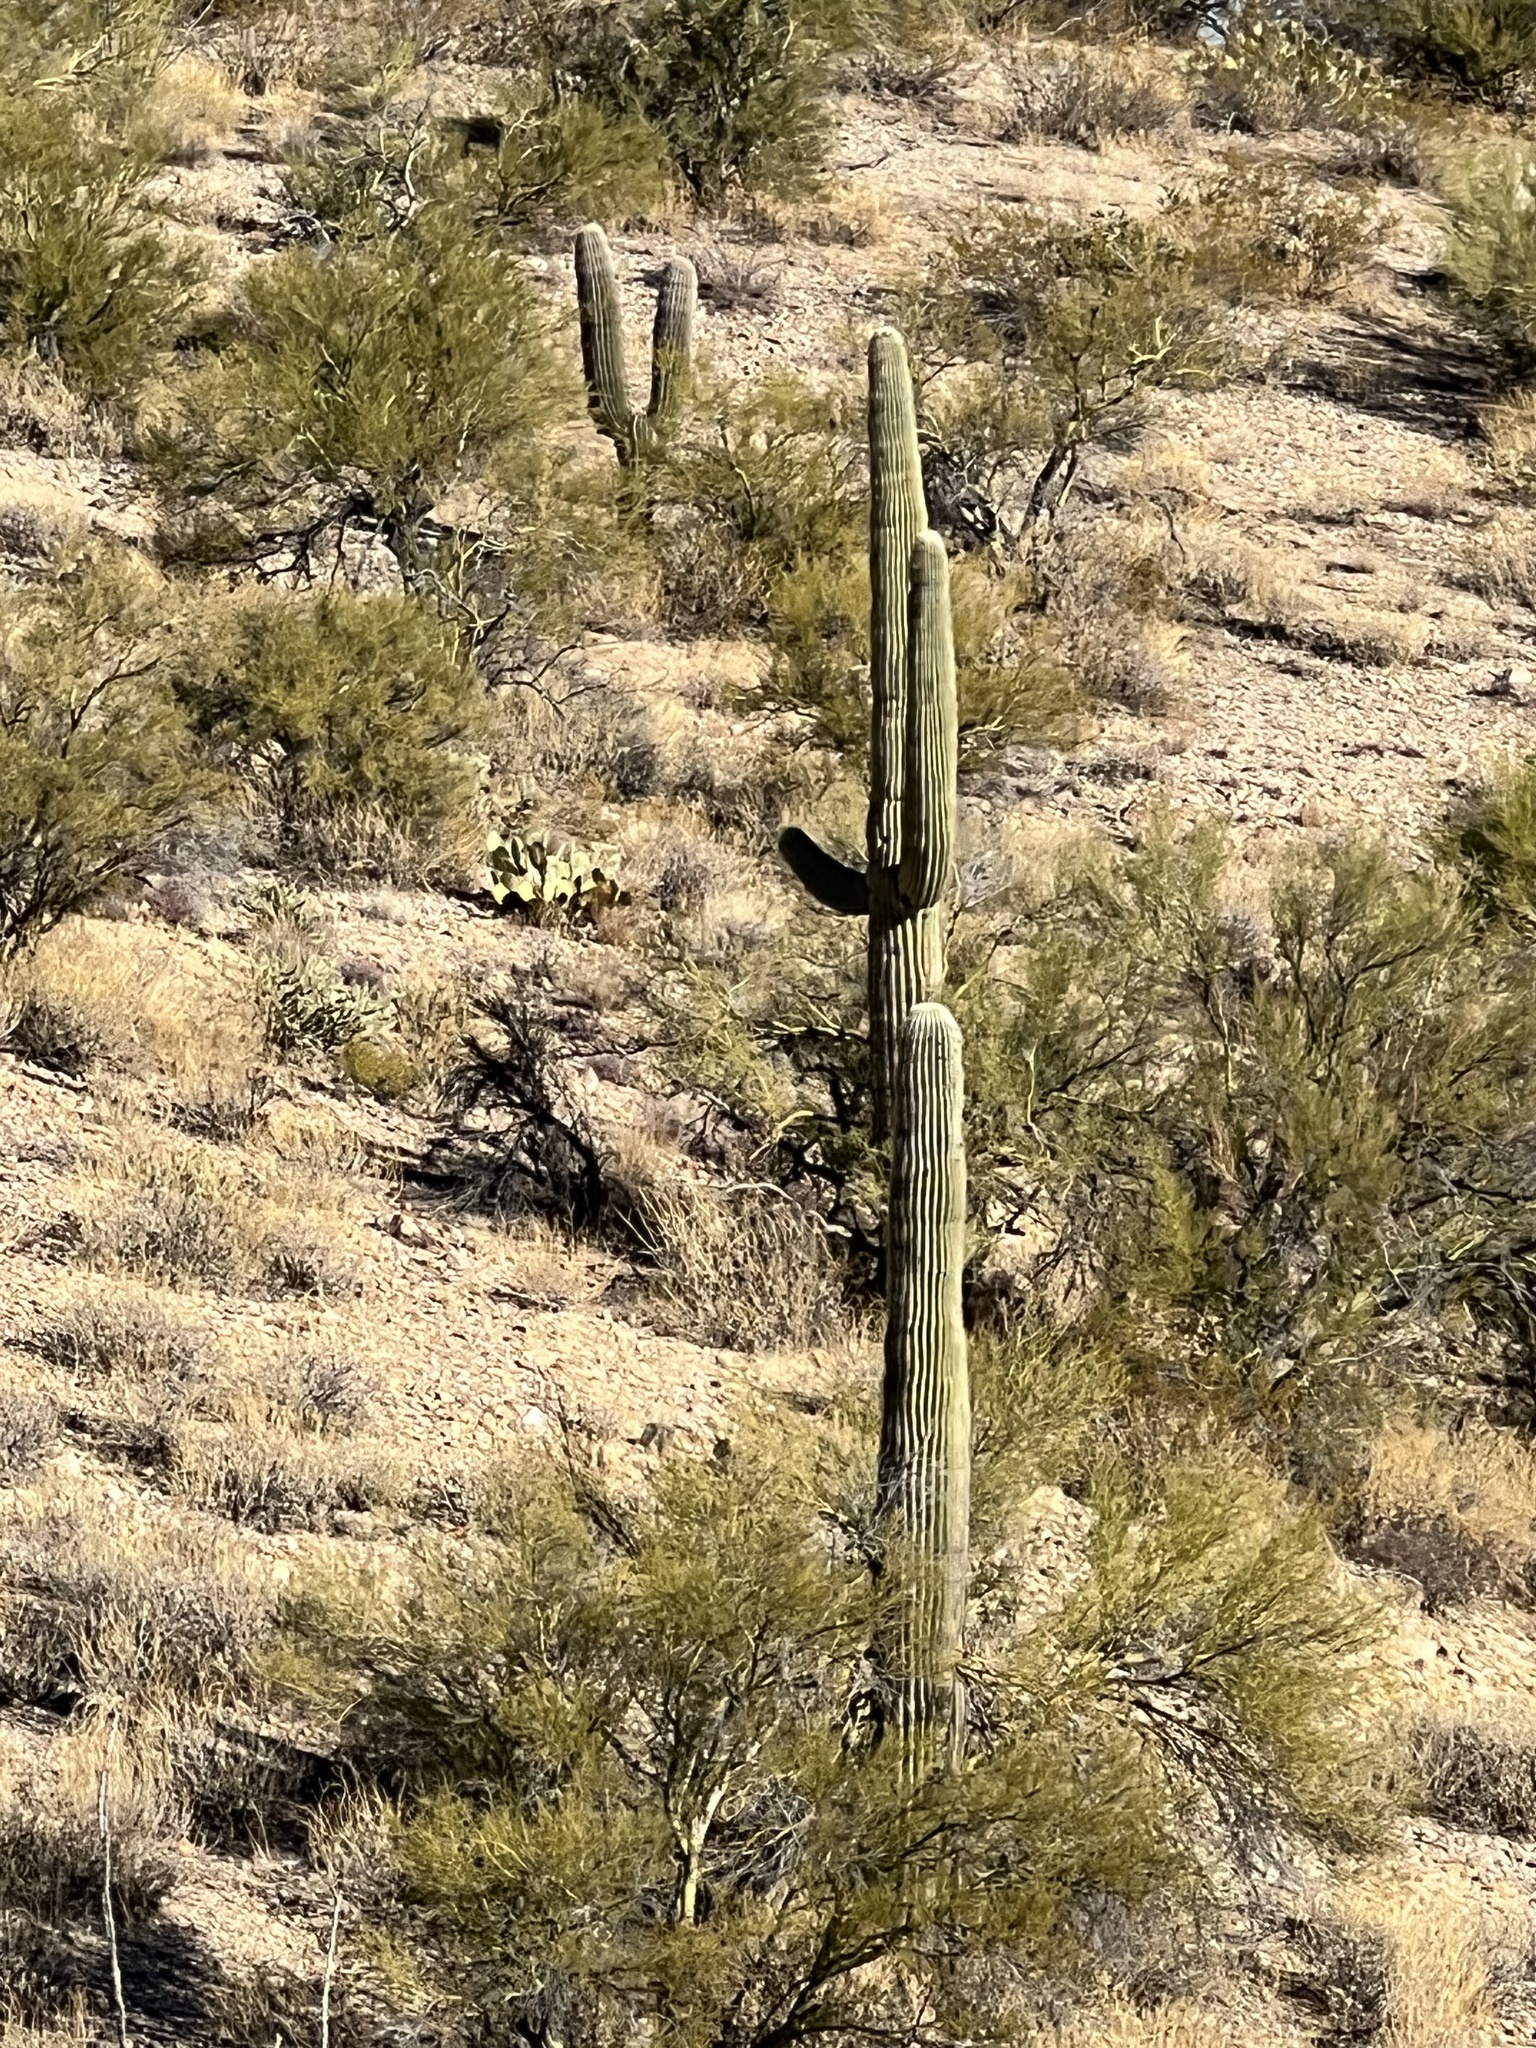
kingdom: Plantae
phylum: Tracheophyta
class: Magnoliopsida
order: Caryophyllales
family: Cactaceae
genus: Carnegiea
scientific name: Carnegiea gigantea
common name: Saguaro
